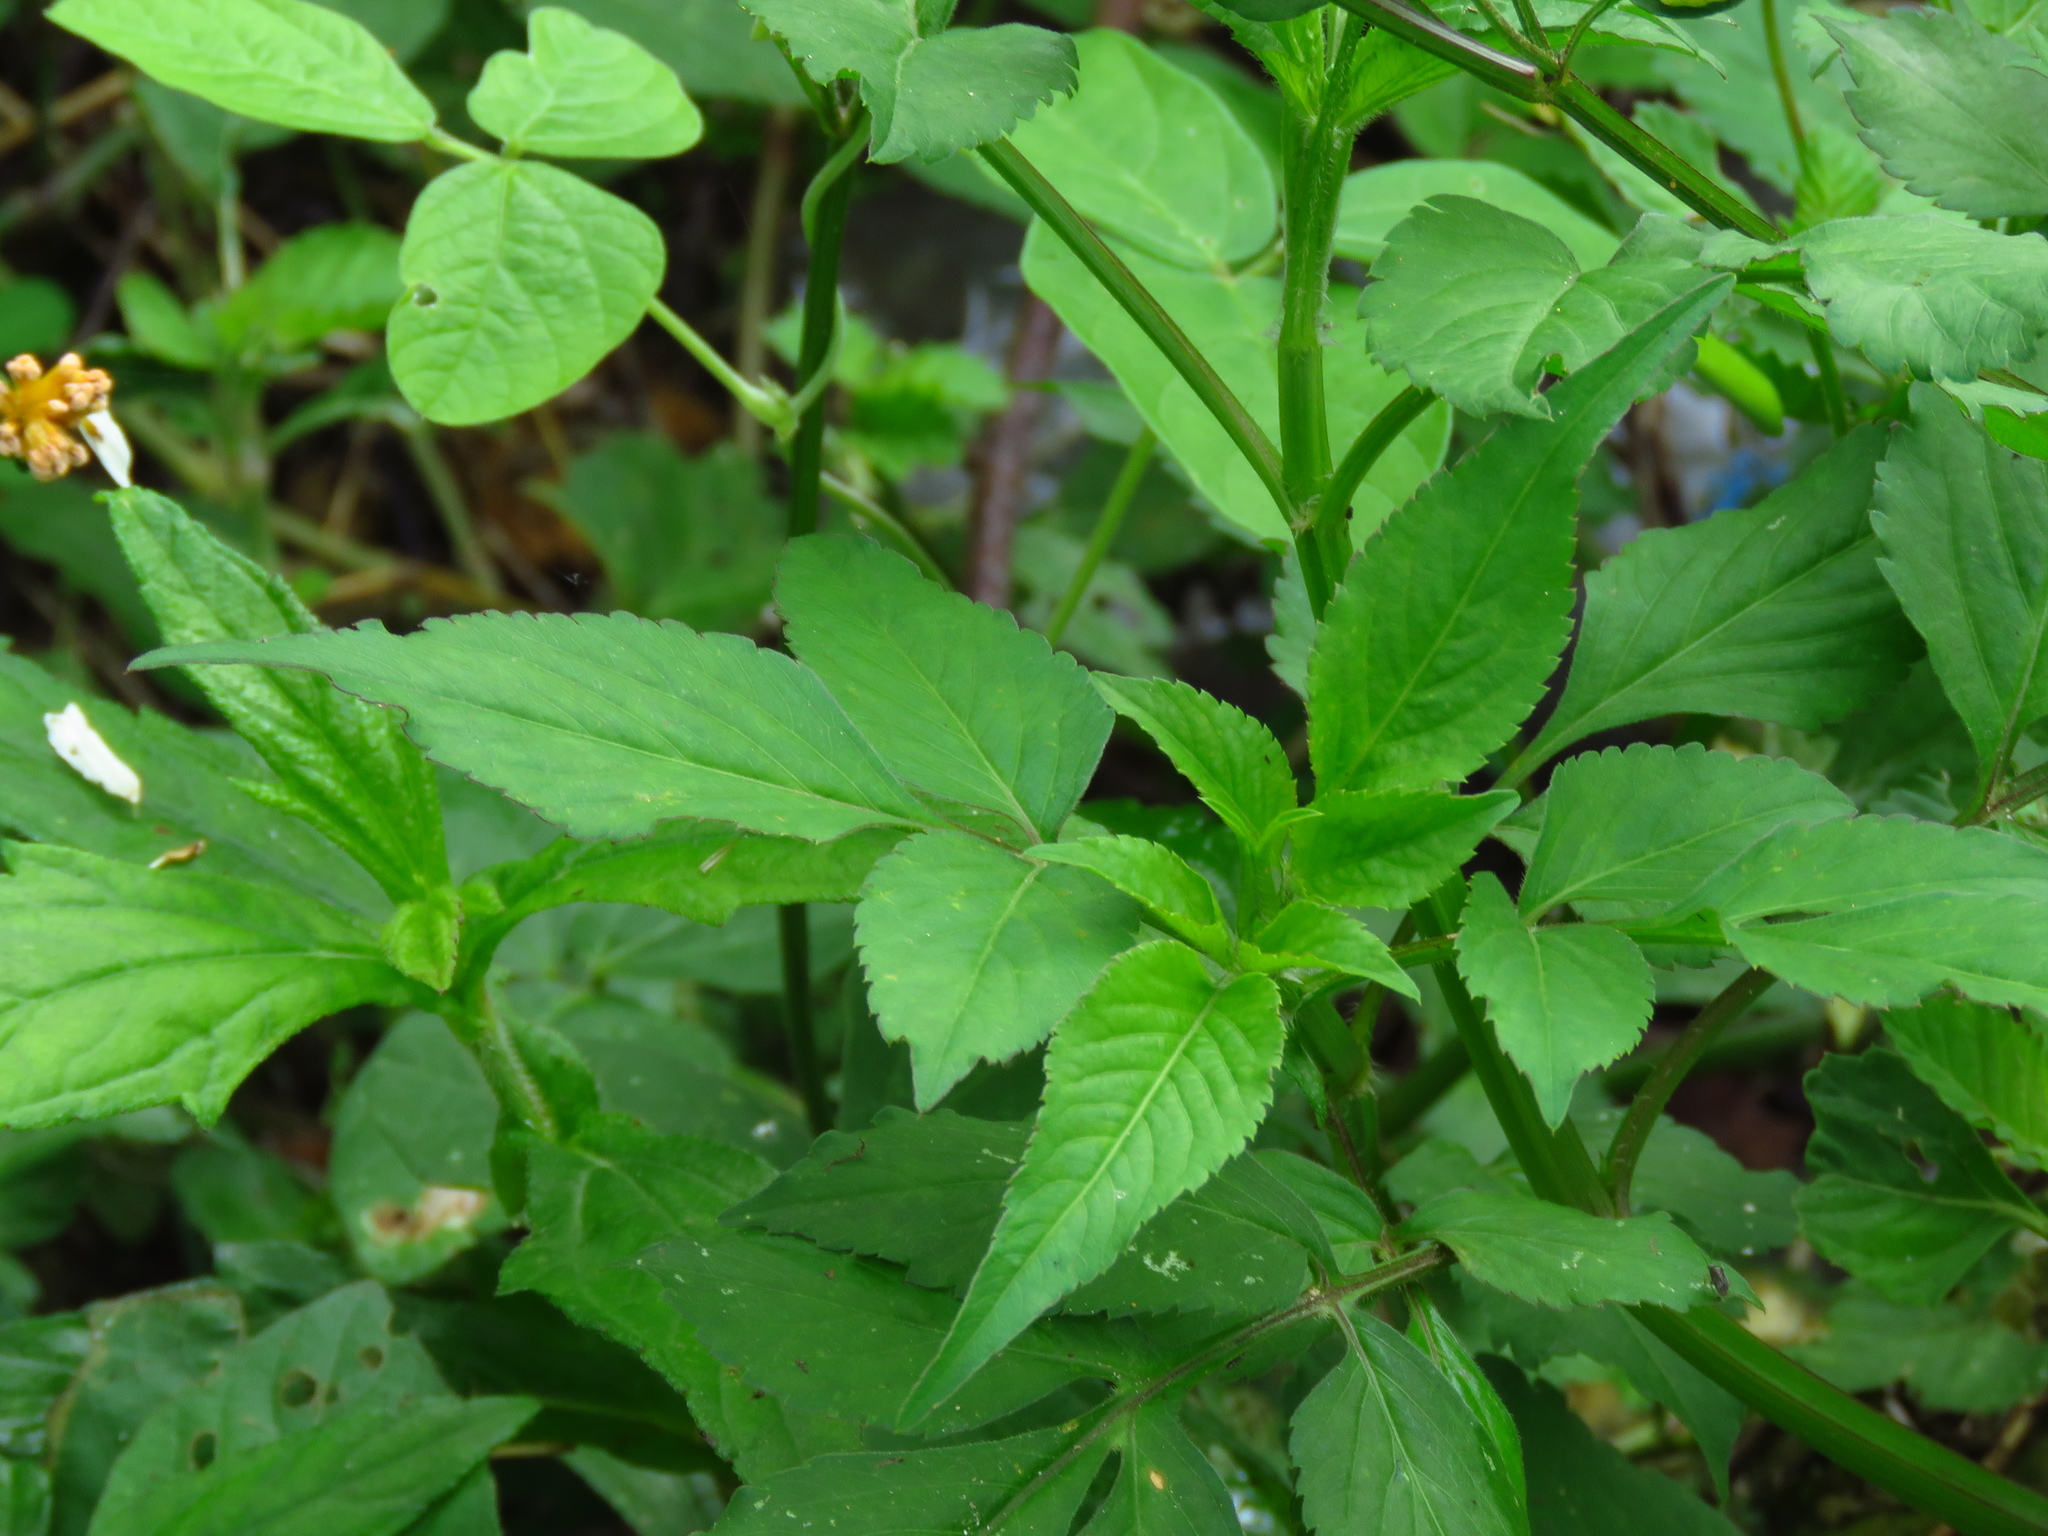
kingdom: Plantae
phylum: Tracheophyta
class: Magnoliopsida
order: Asterales
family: Asteraceae
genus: Bidens
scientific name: Bidens alba
